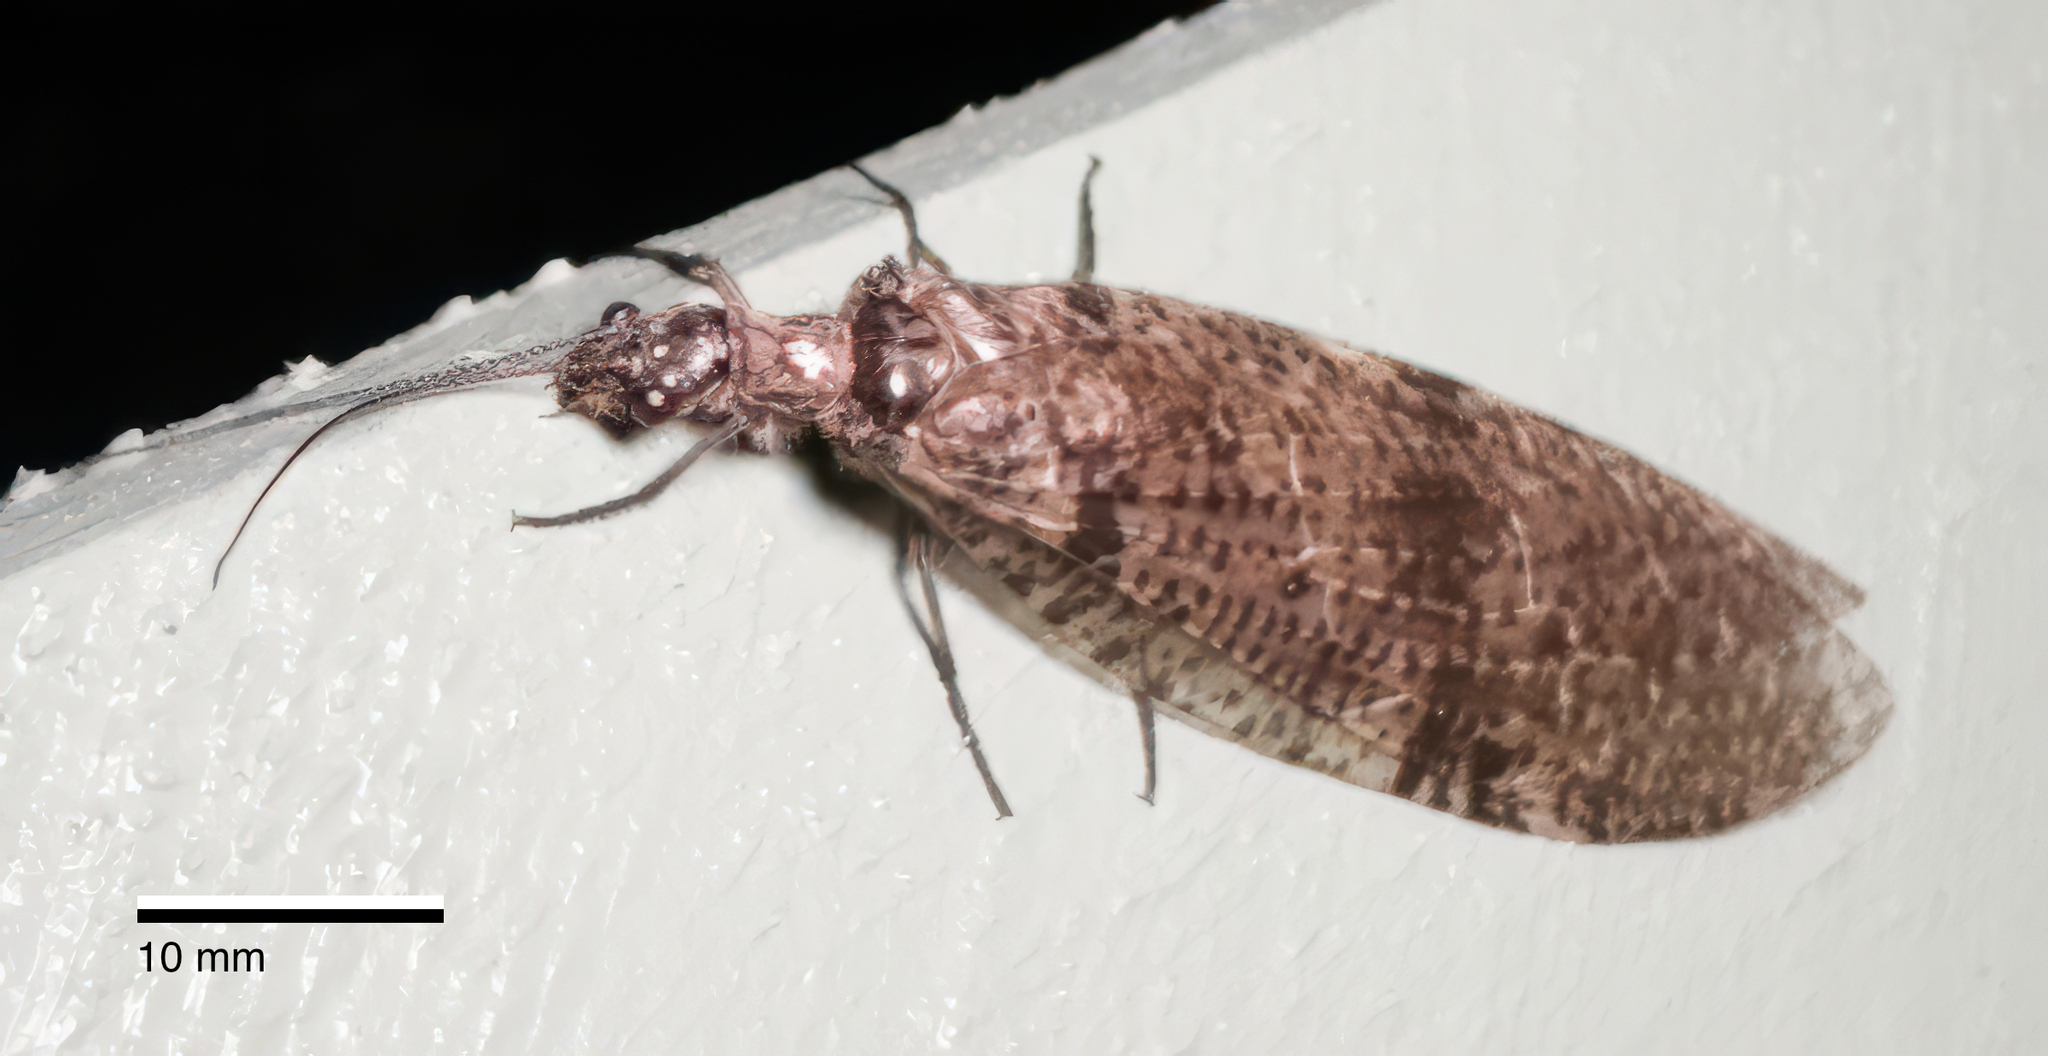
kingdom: Animalia
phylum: Arthropoda
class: Insecta
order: Megaloptera
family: Corydalidae
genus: Archichauliodes
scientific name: Archichauliodes diversus
